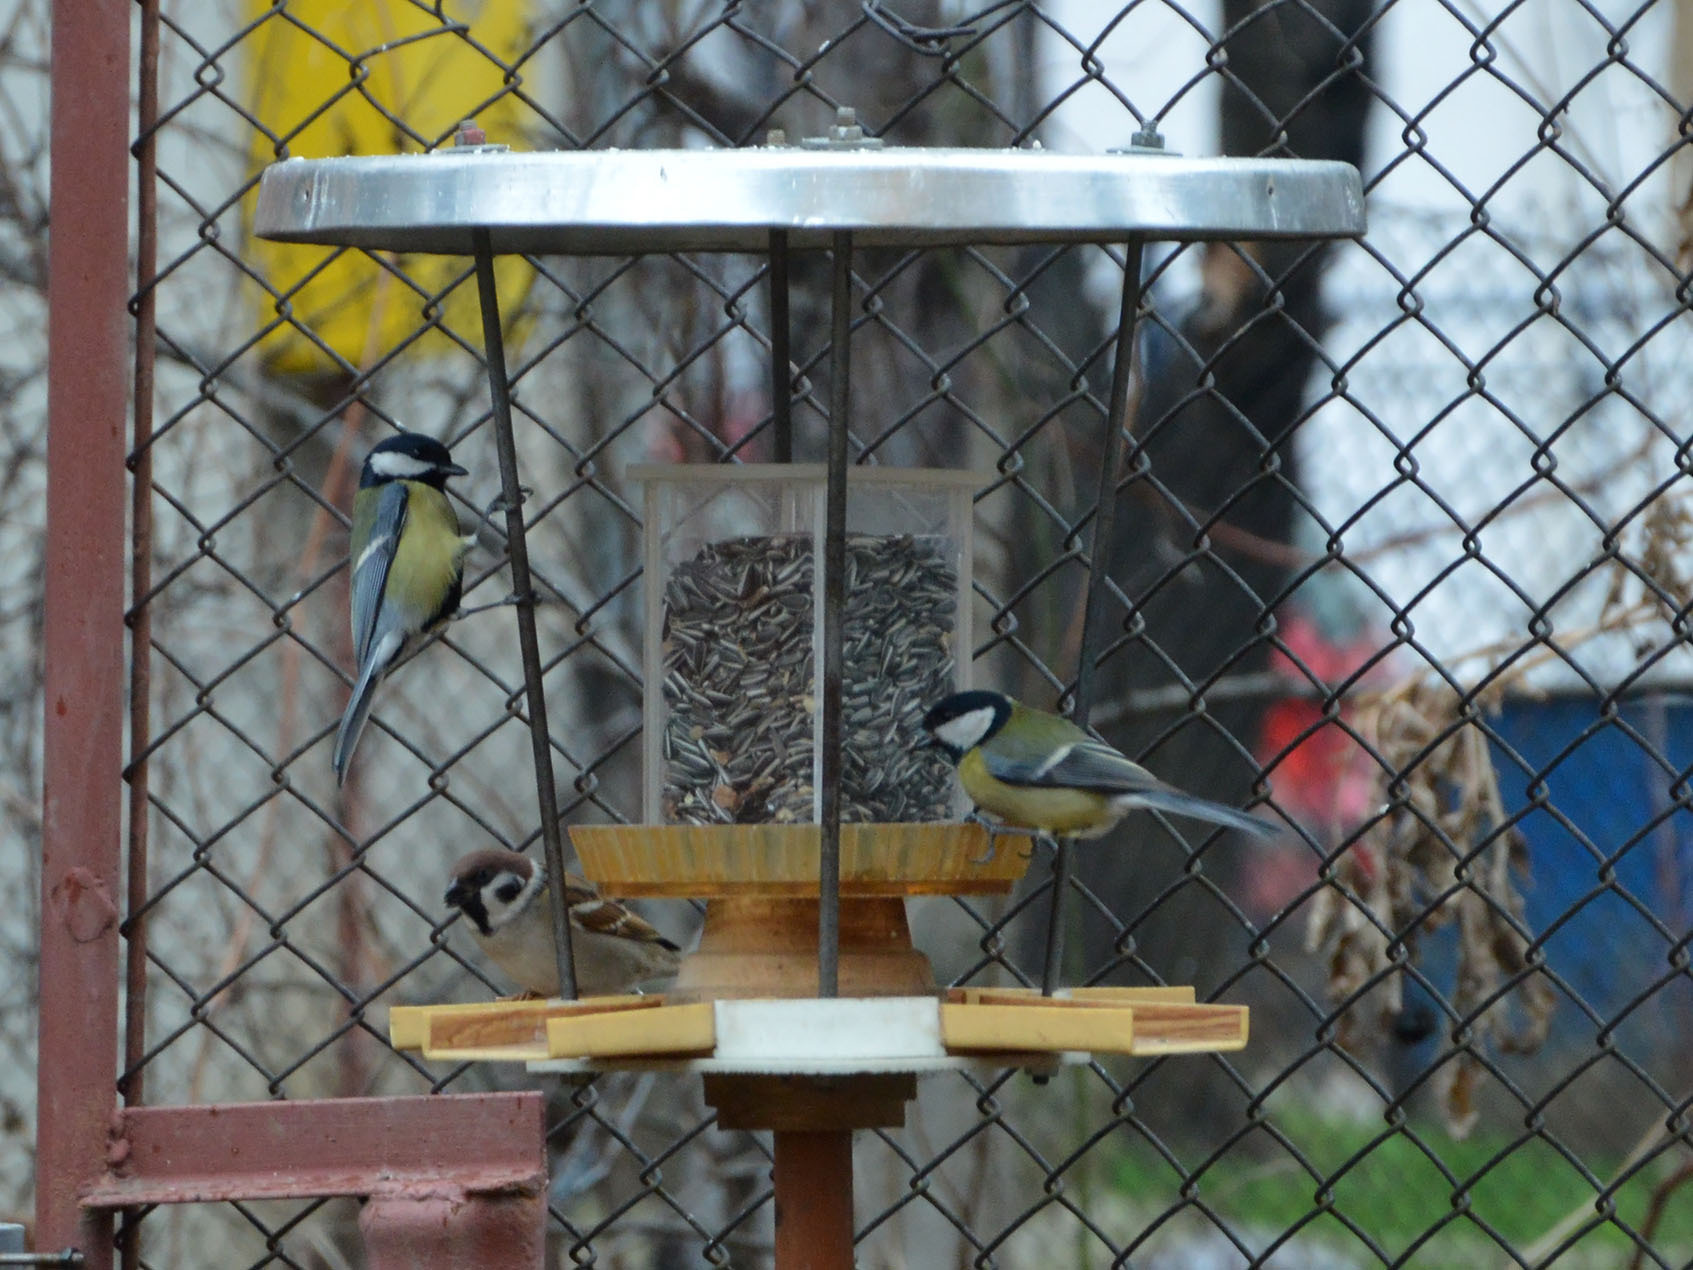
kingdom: Animalia
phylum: Chordata
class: Aves
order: Passeriformes
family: Paridae
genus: Parus
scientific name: Parus major
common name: Great tit
